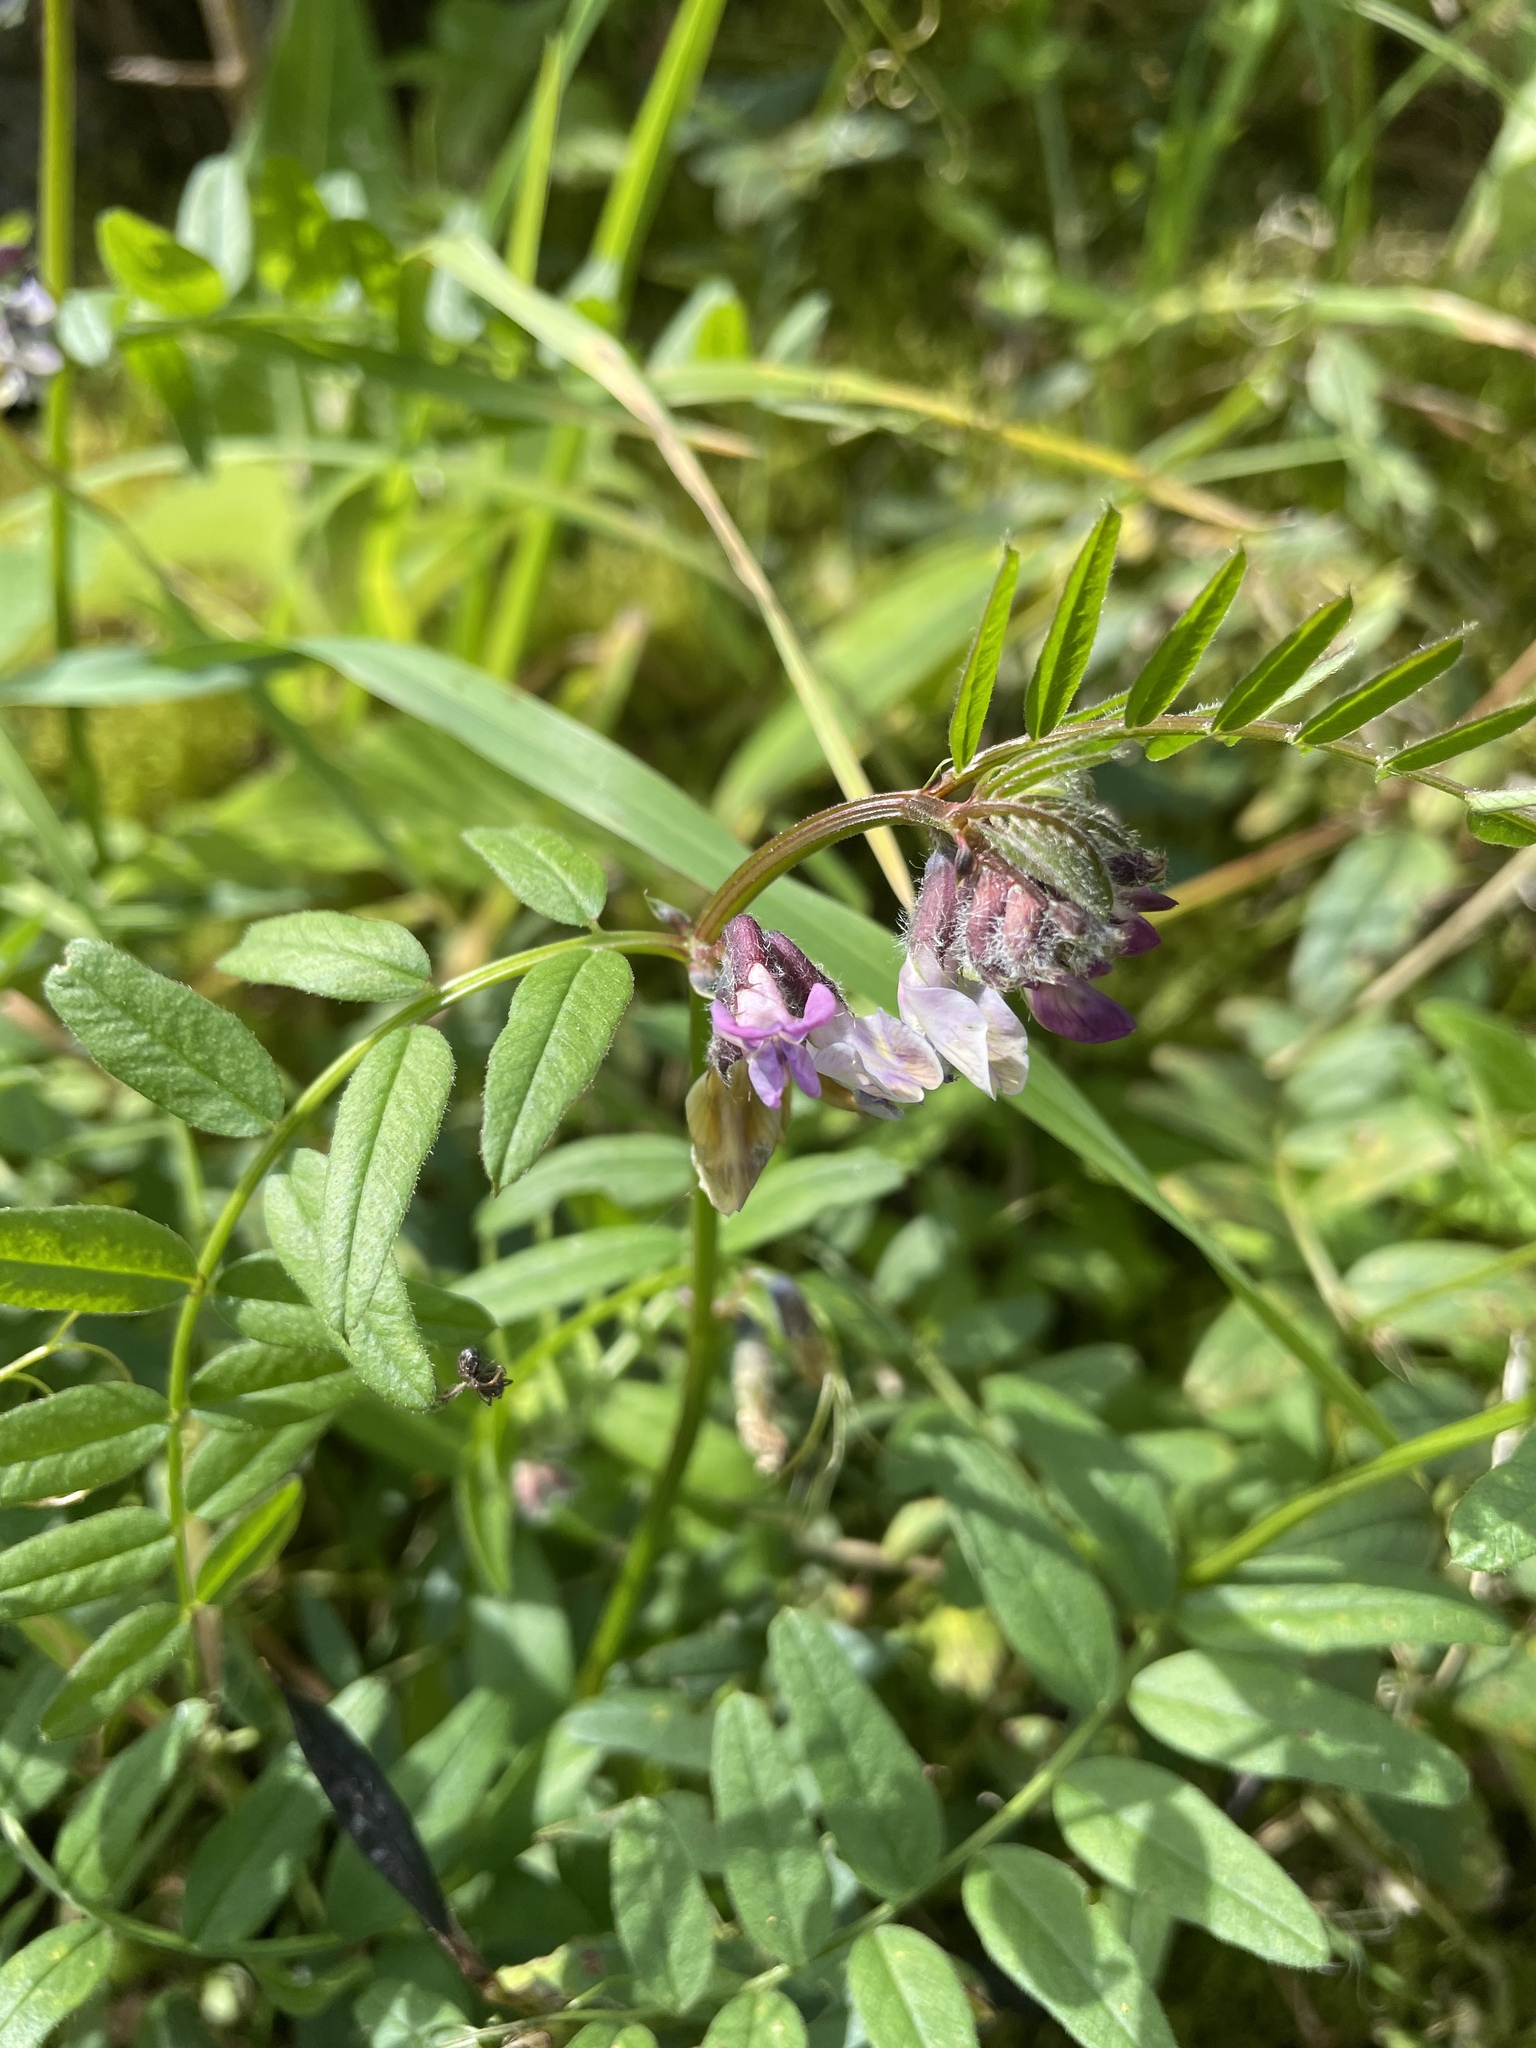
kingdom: Plantae
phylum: Tracheophyta
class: Magnoliopsida
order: Fabales
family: Fabaceae
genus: Vicia
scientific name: Vicia sepium
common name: Bush vetch
